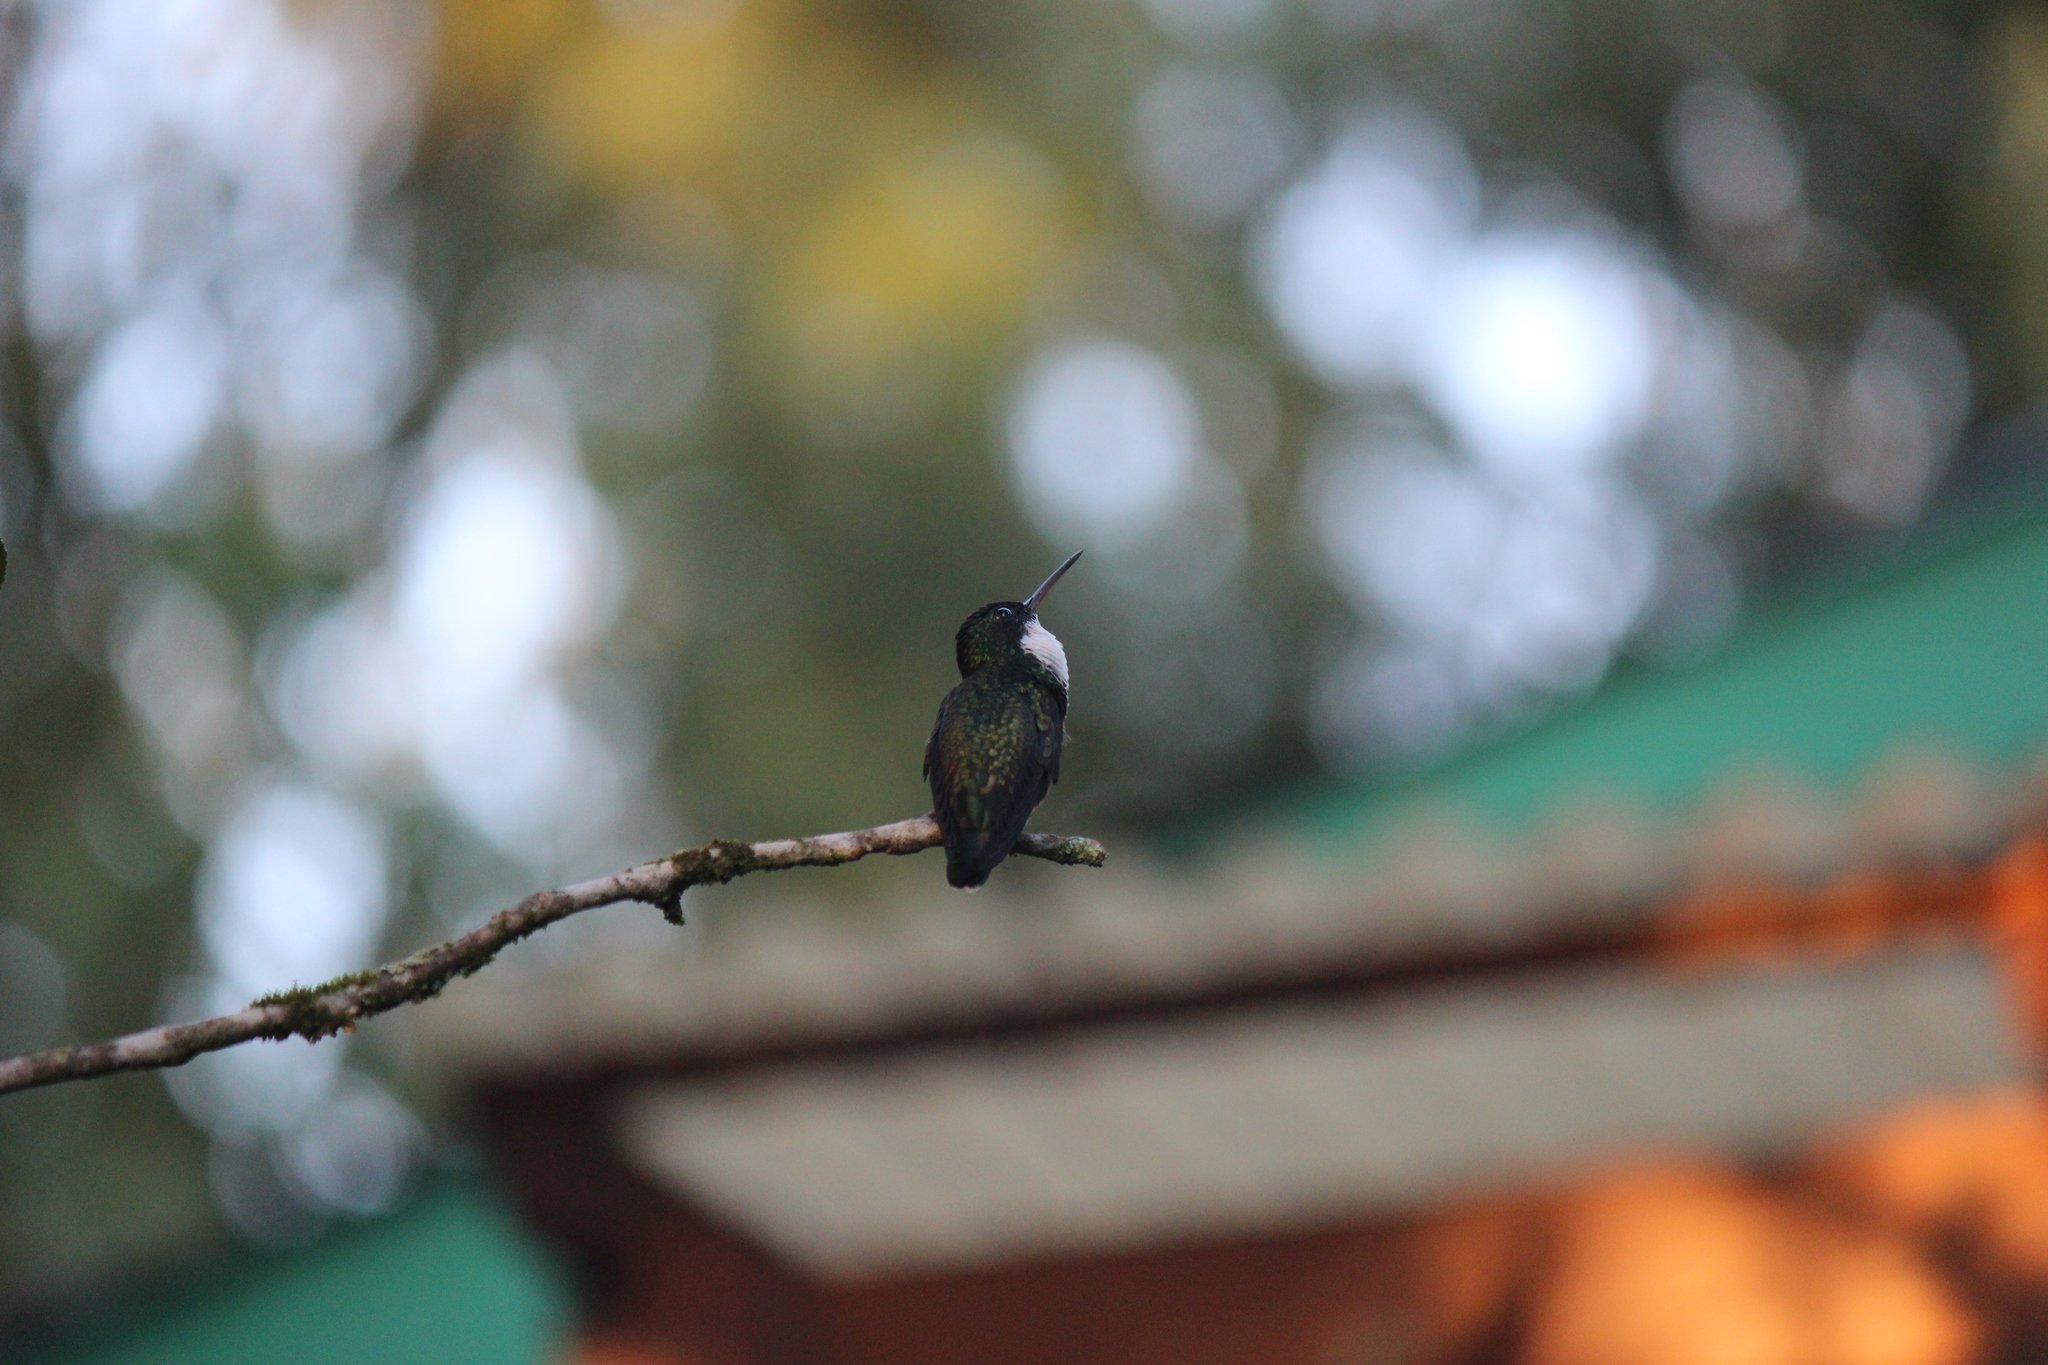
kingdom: Animalia
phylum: Chordata
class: Aves
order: Apodiformes
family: Trochilidae
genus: Leucochloris
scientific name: Leucochloris albicollis
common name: White-throated hummingbird
